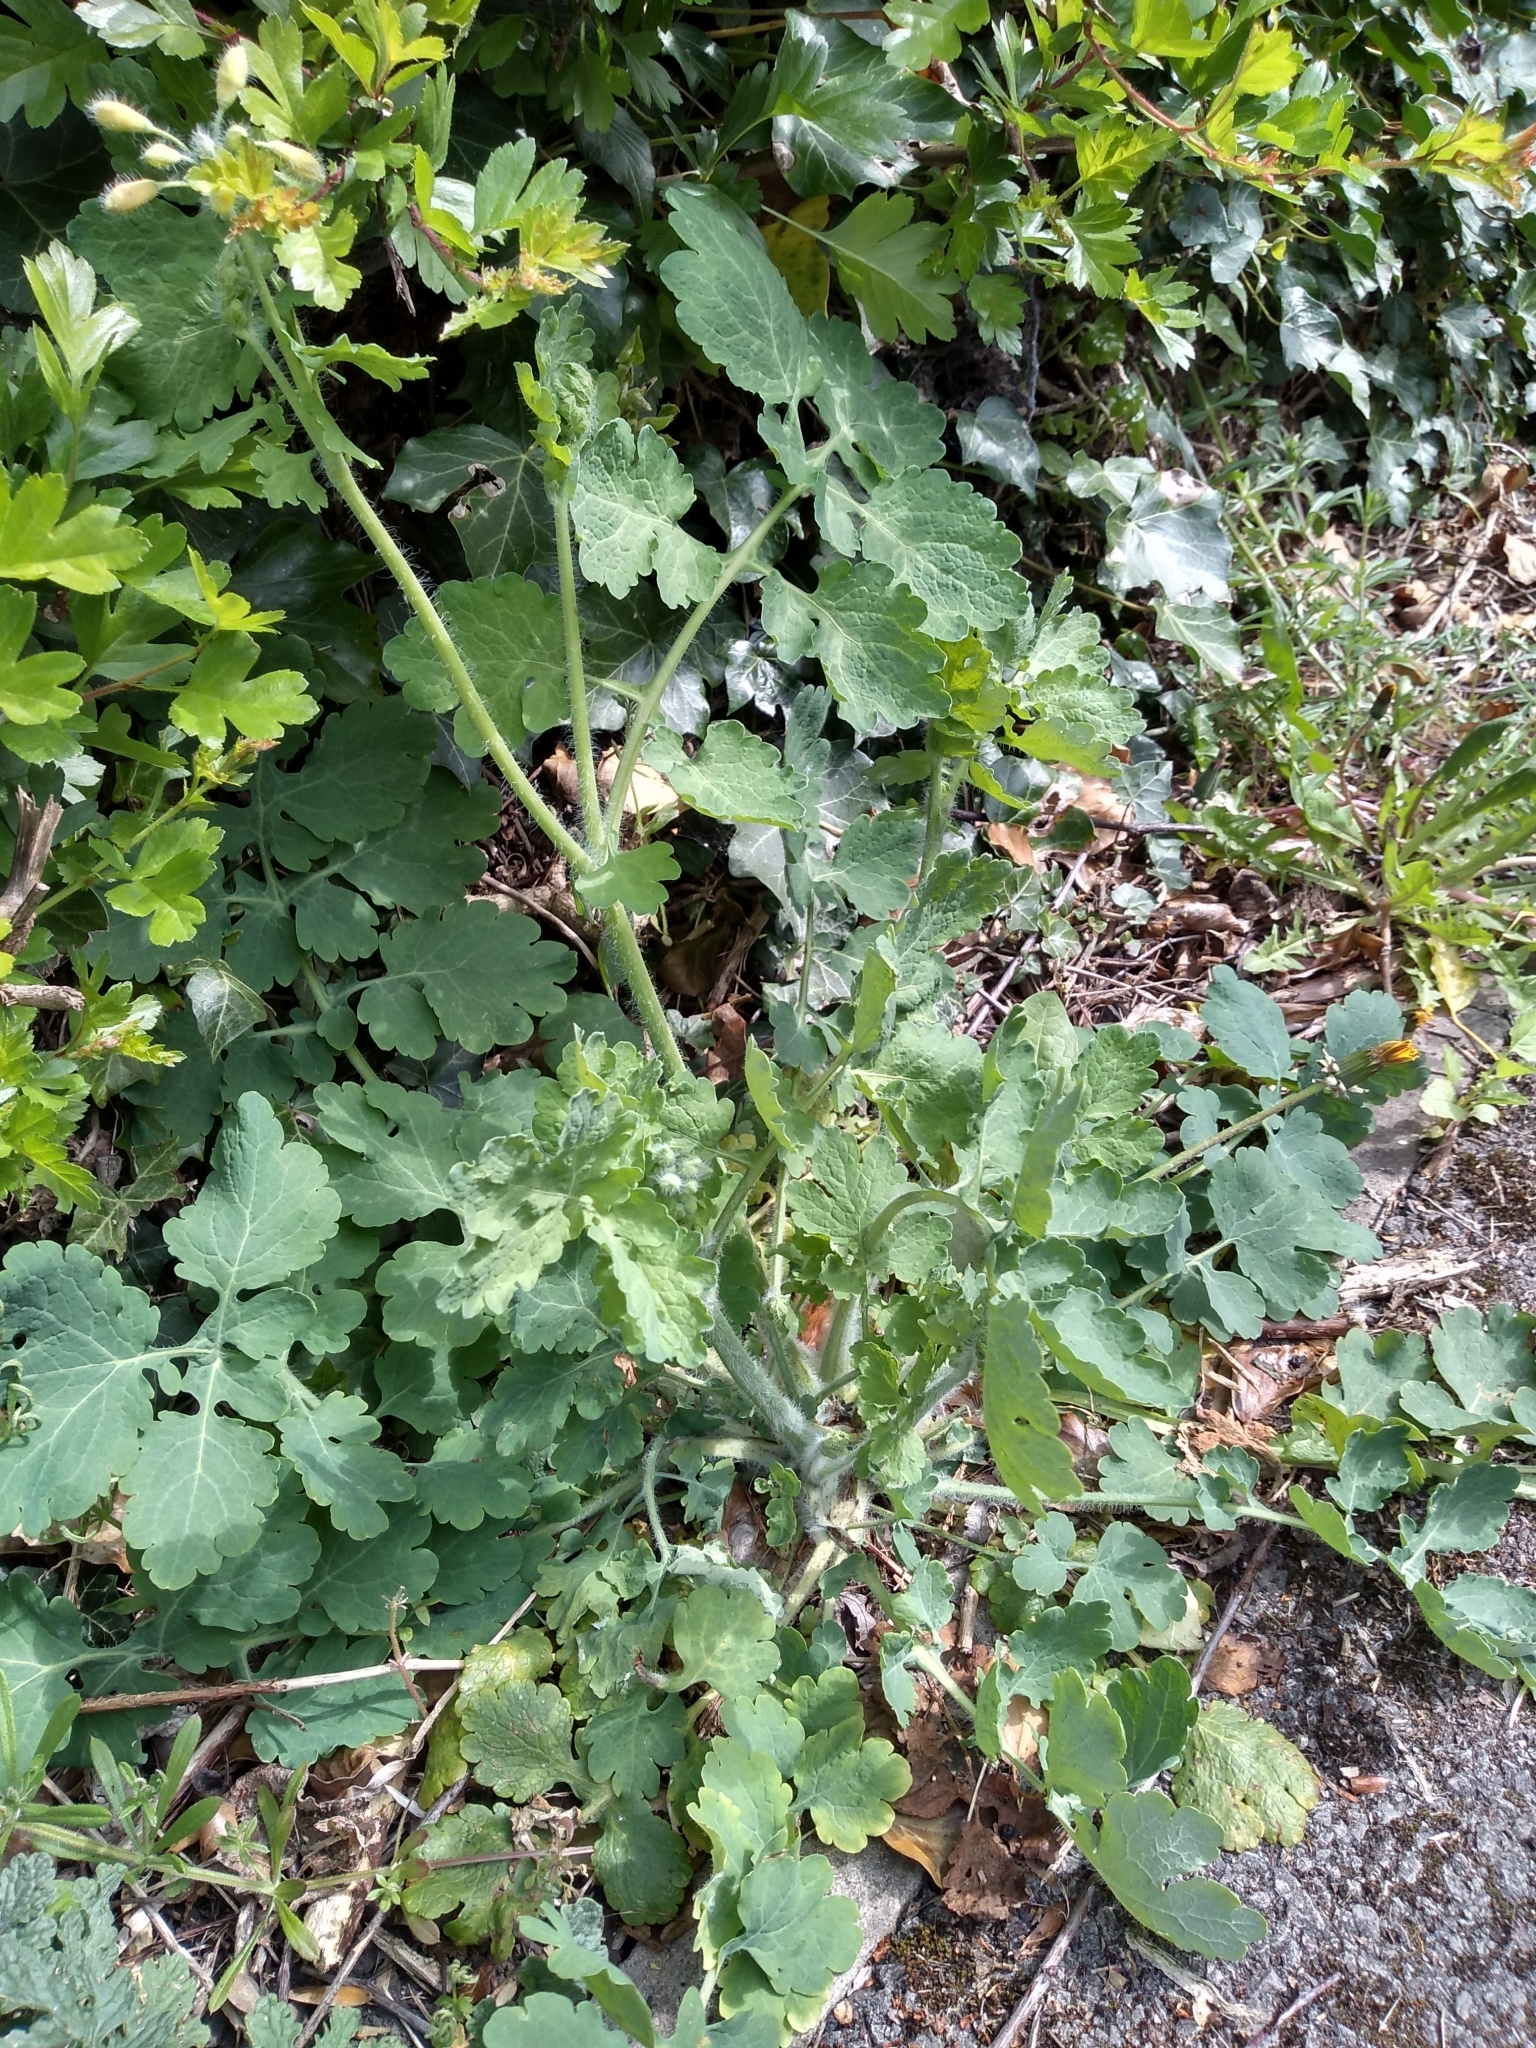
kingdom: Plantae
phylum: Tracheophyta
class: Magnoliopsida
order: Ranunculales
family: Papaveraceae
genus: Chelidonium
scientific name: Chelidonium majus
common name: Greater celandine
